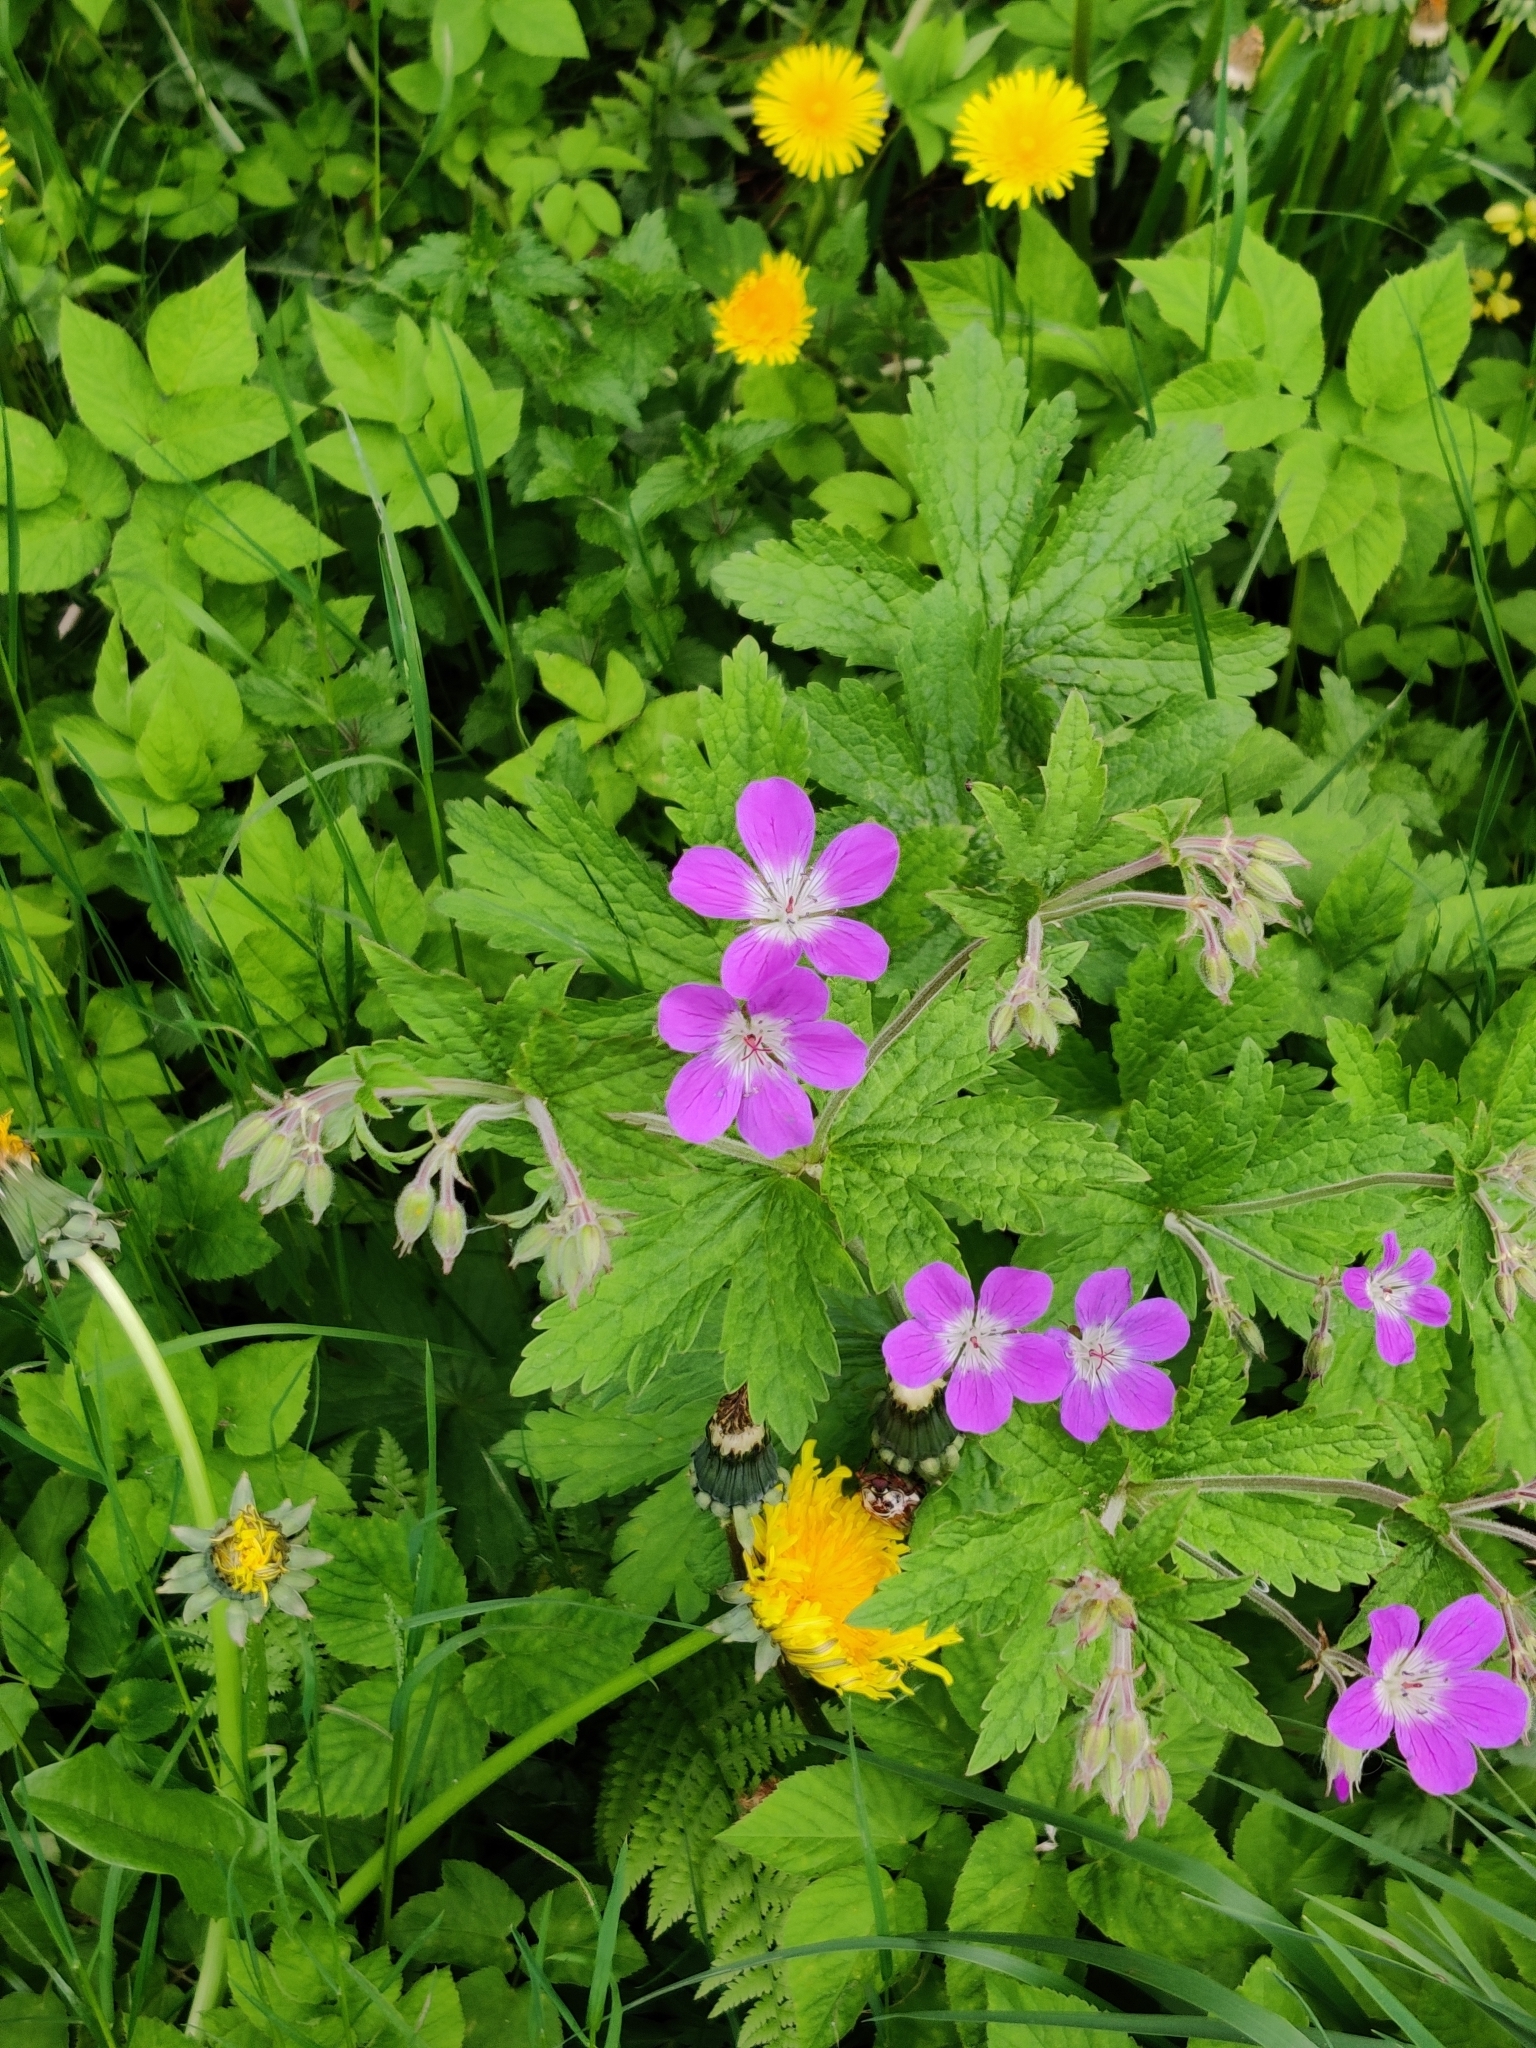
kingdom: Plantae
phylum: Tracheophyta
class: Magnoliopsida
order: Geraniales
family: Geraniaceae
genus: Geranium
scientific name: Geranium sylvaticum
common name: Wood crane's-bill
